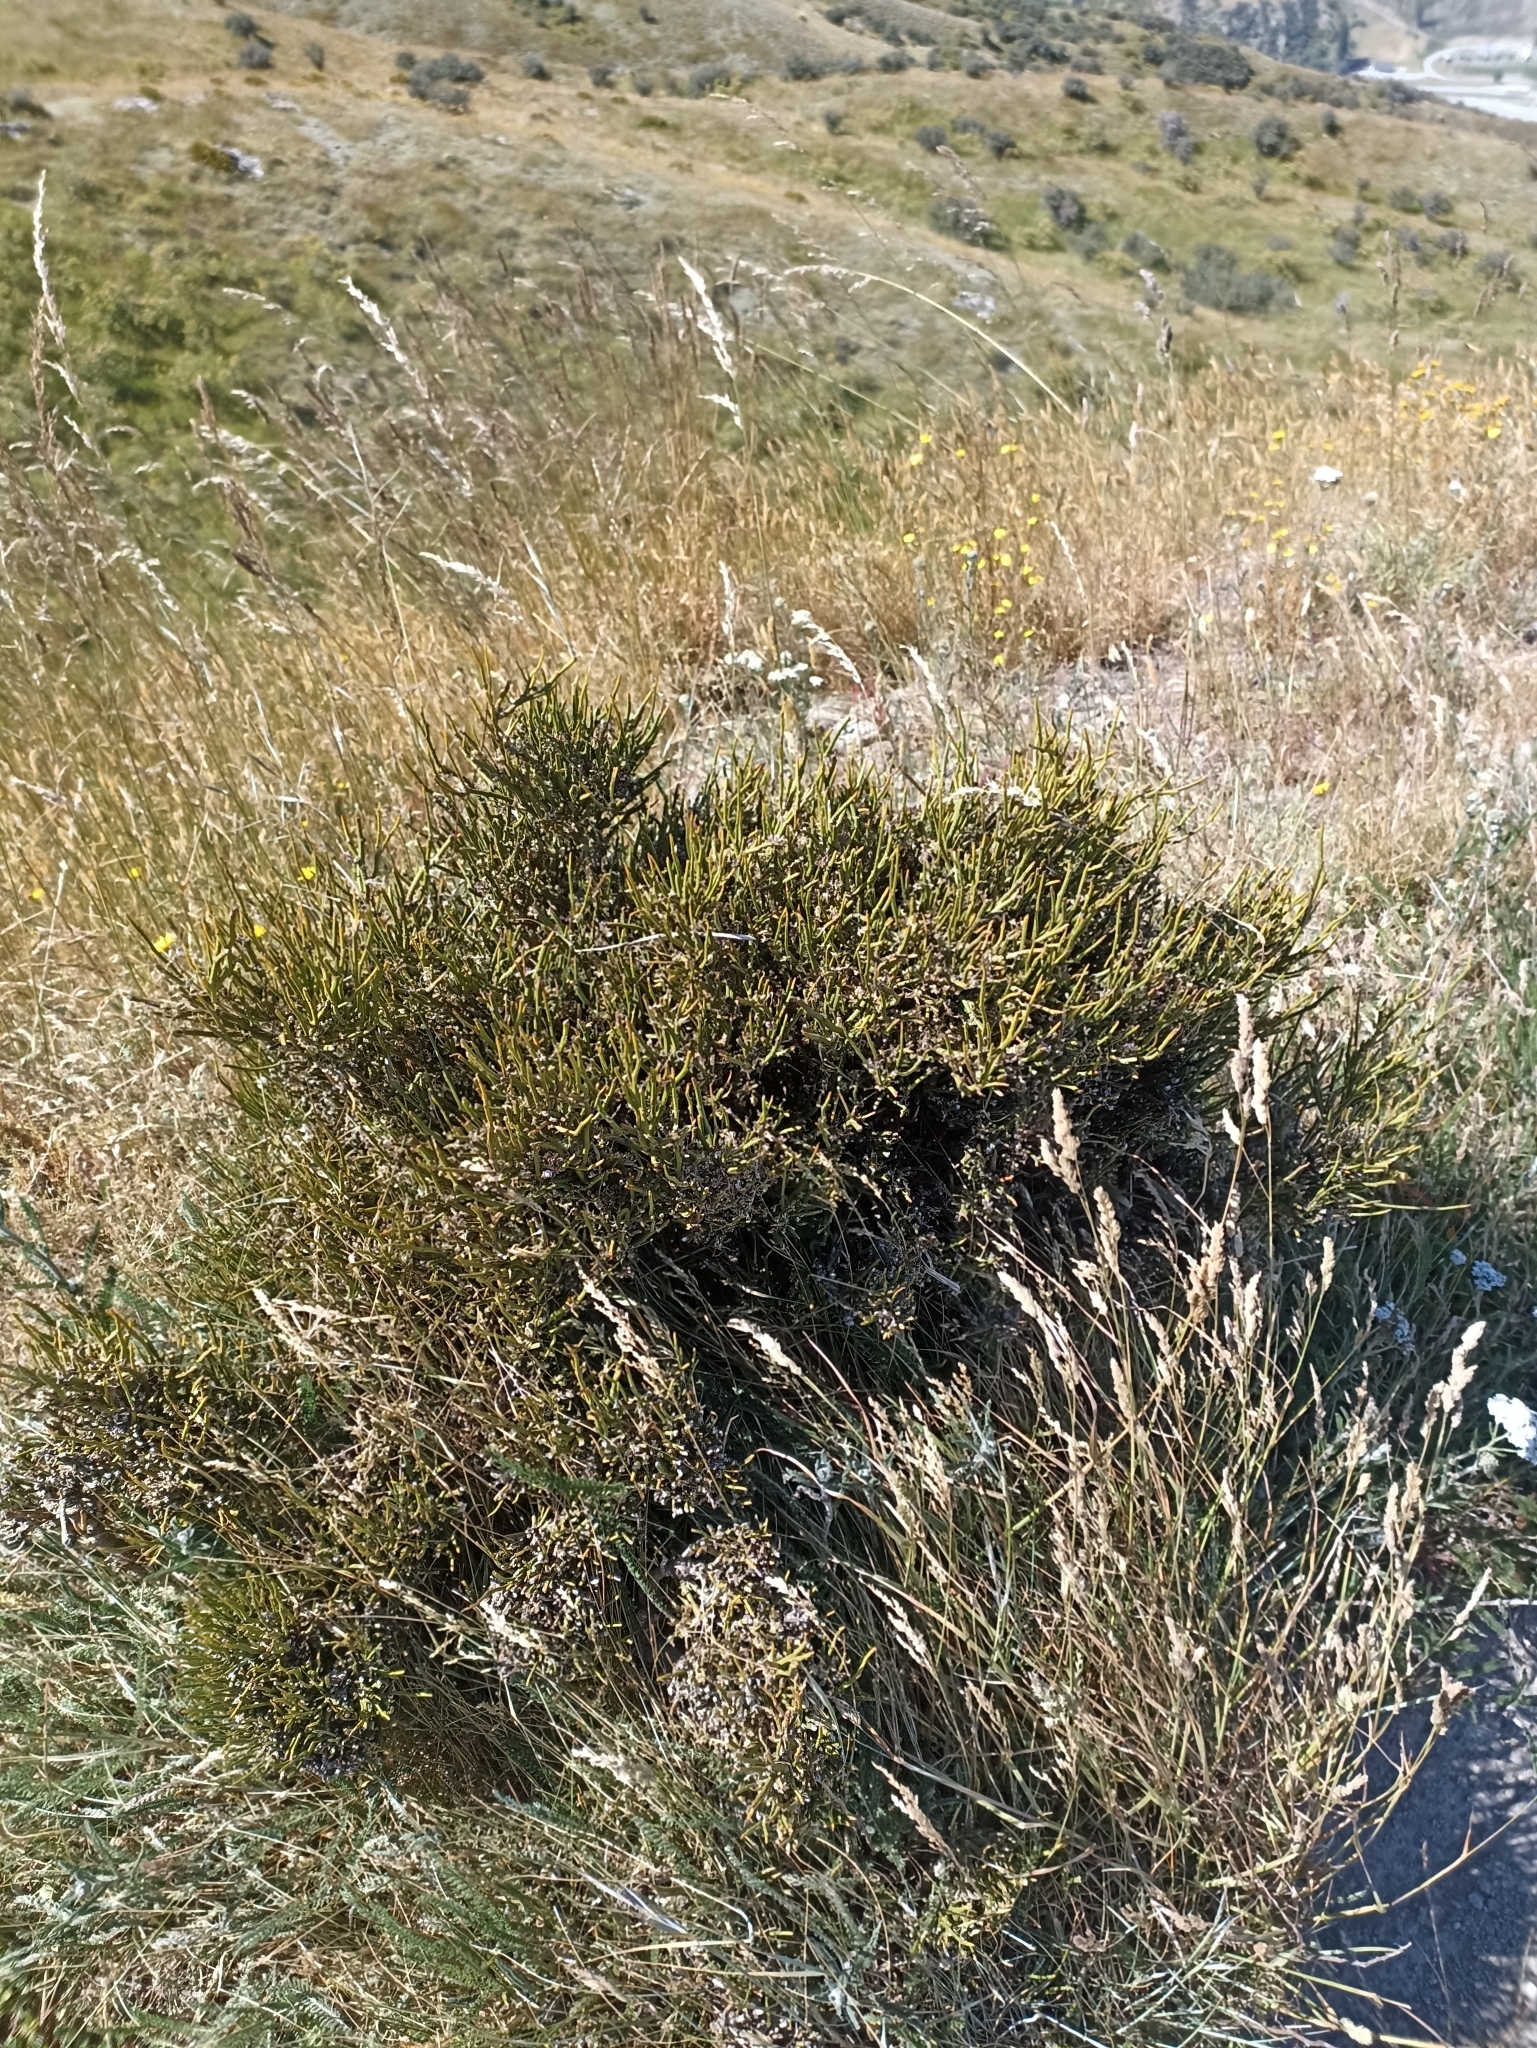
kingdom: Plantae
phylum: Tracheophyta
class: Magnoliopsida
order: Fabales
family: Fabaceae
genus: Carmichaelia
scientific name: Carmichaelia petriei
